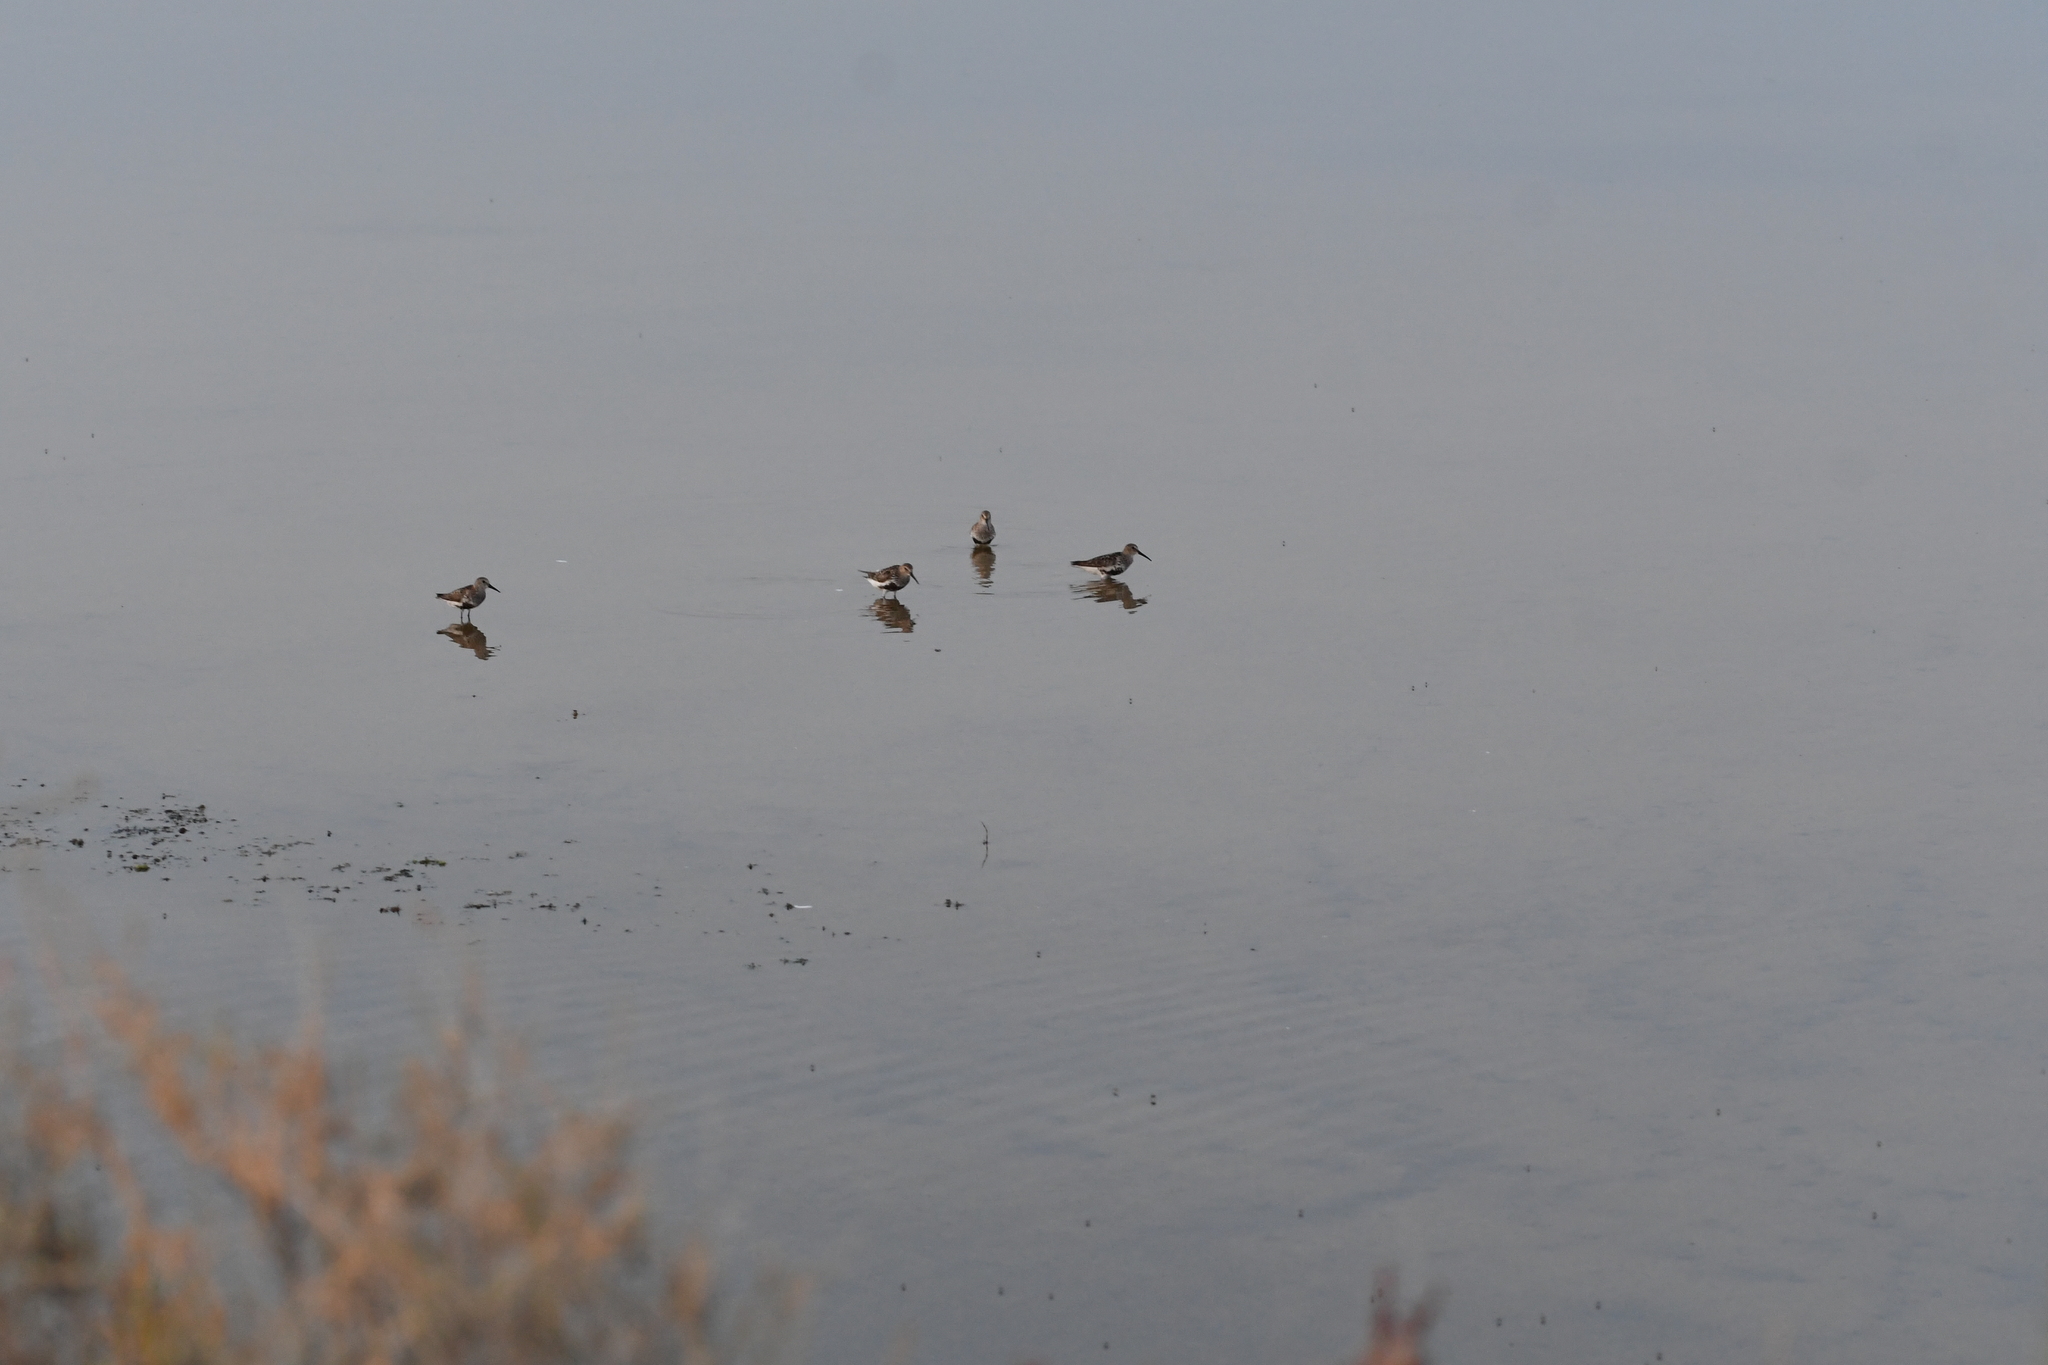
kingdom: Animalia
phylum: Chordata
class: Aves
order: Charadriiformes
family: Scolopacidae
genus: Calidris
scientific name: Calidris alpina
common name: Dunlin
